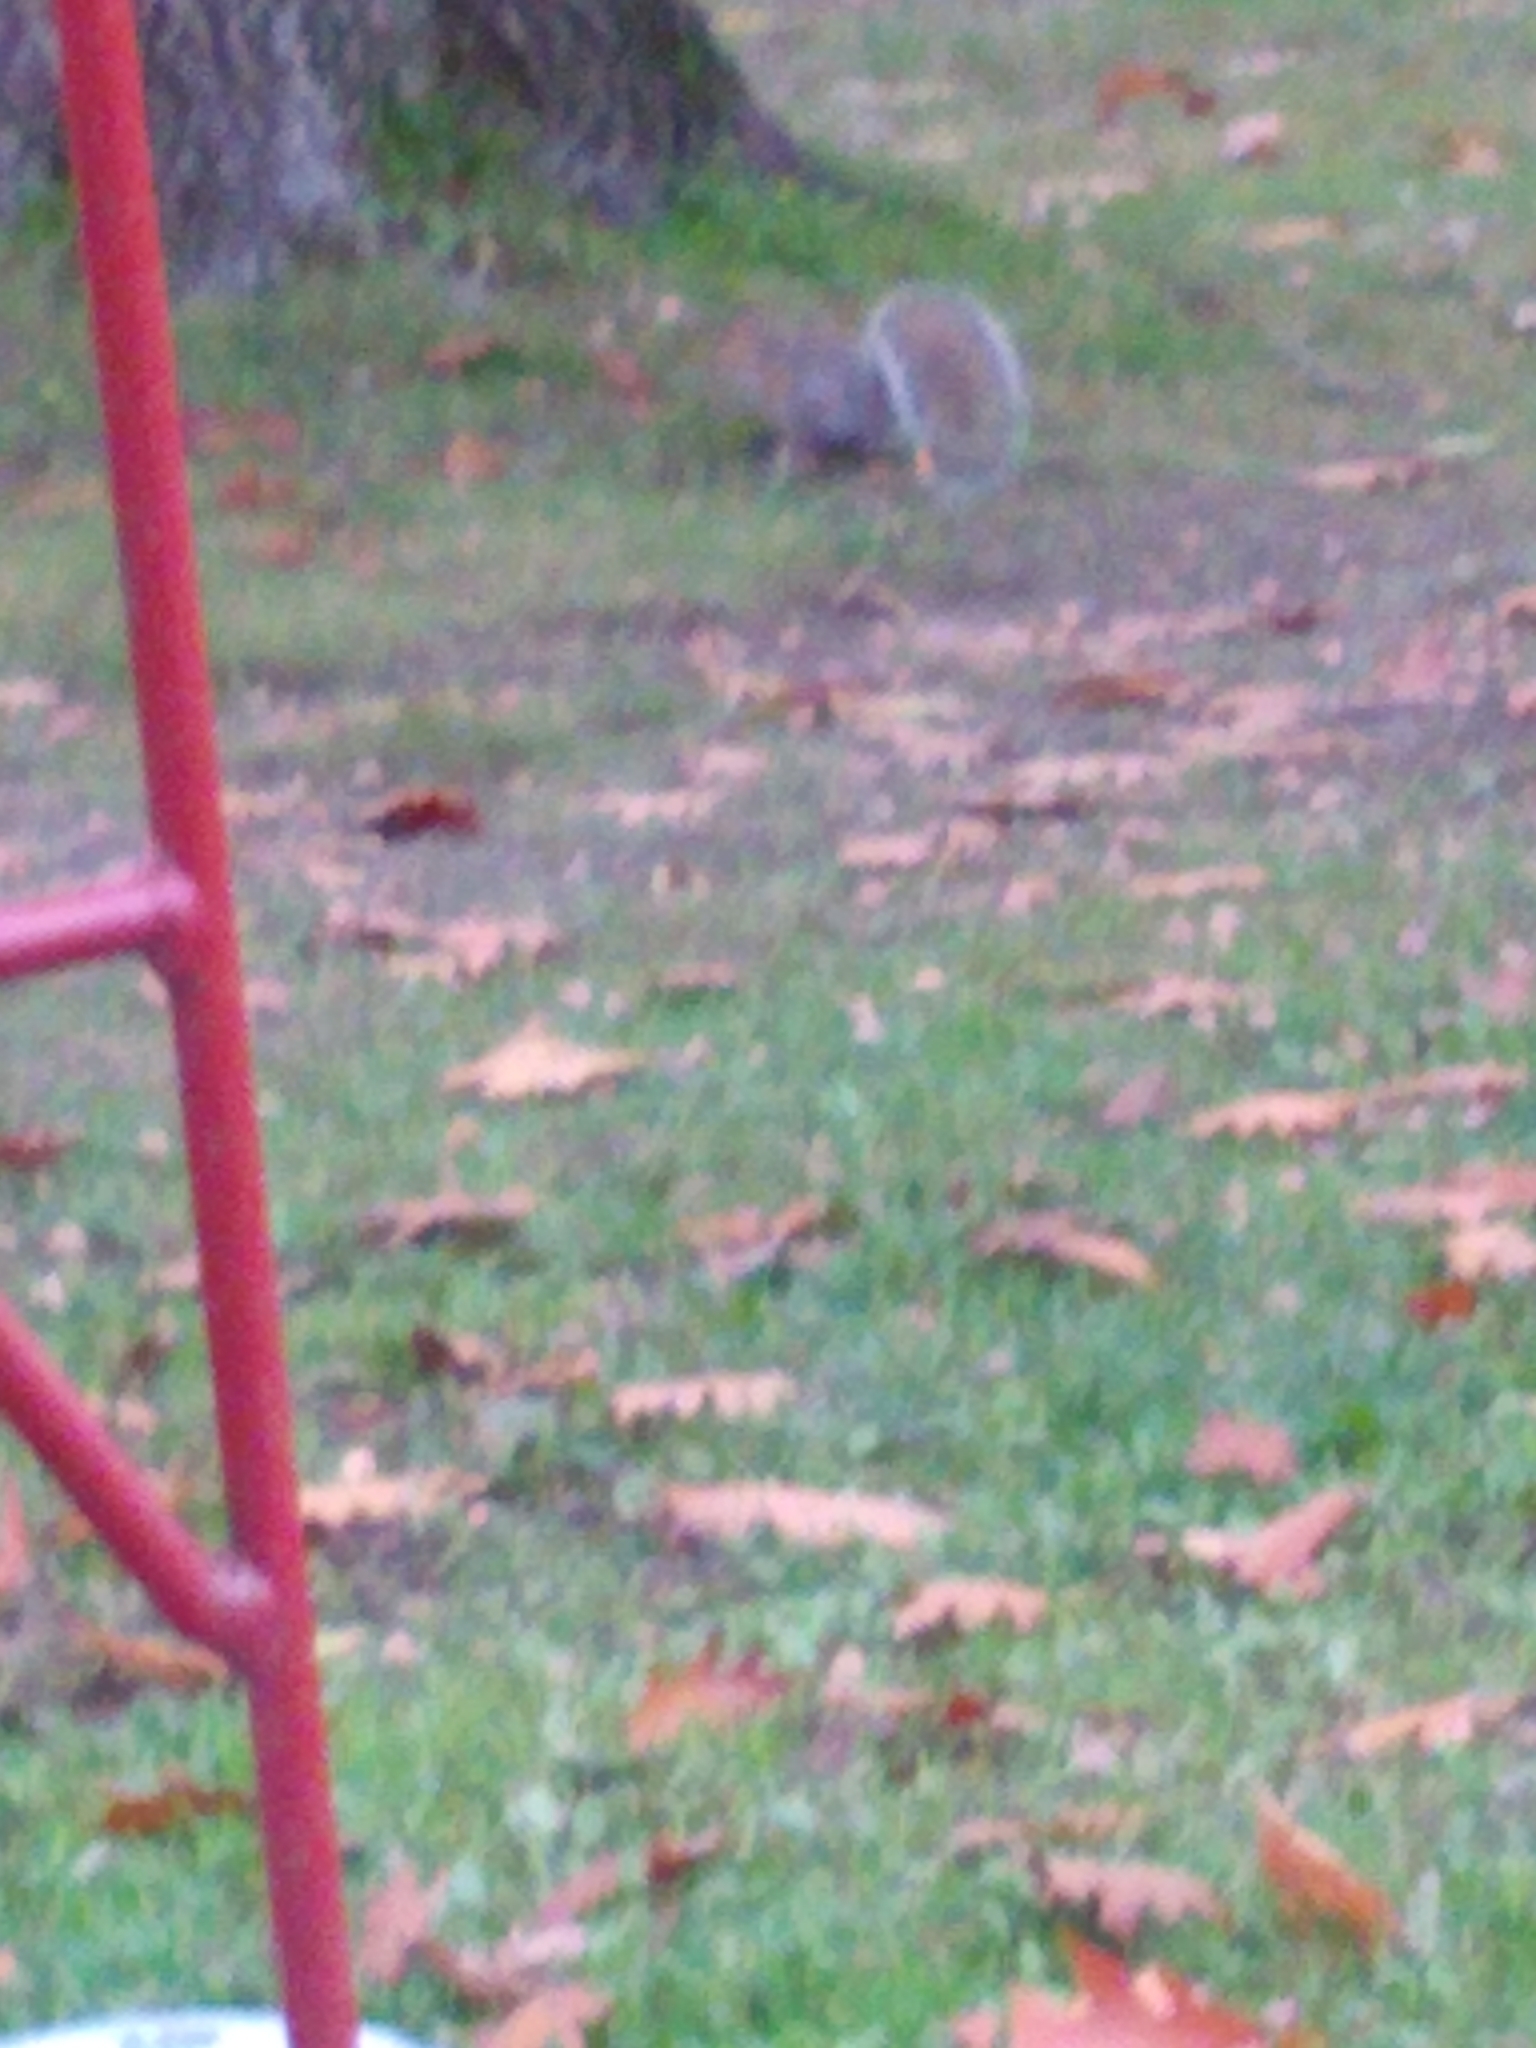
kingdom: Animalia
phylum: Chordata
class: Mammalia
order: Rodentia
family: Sciuridae
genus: Sciurus
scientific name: Sciurus carolinensis
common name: Eastern gray squirrel
